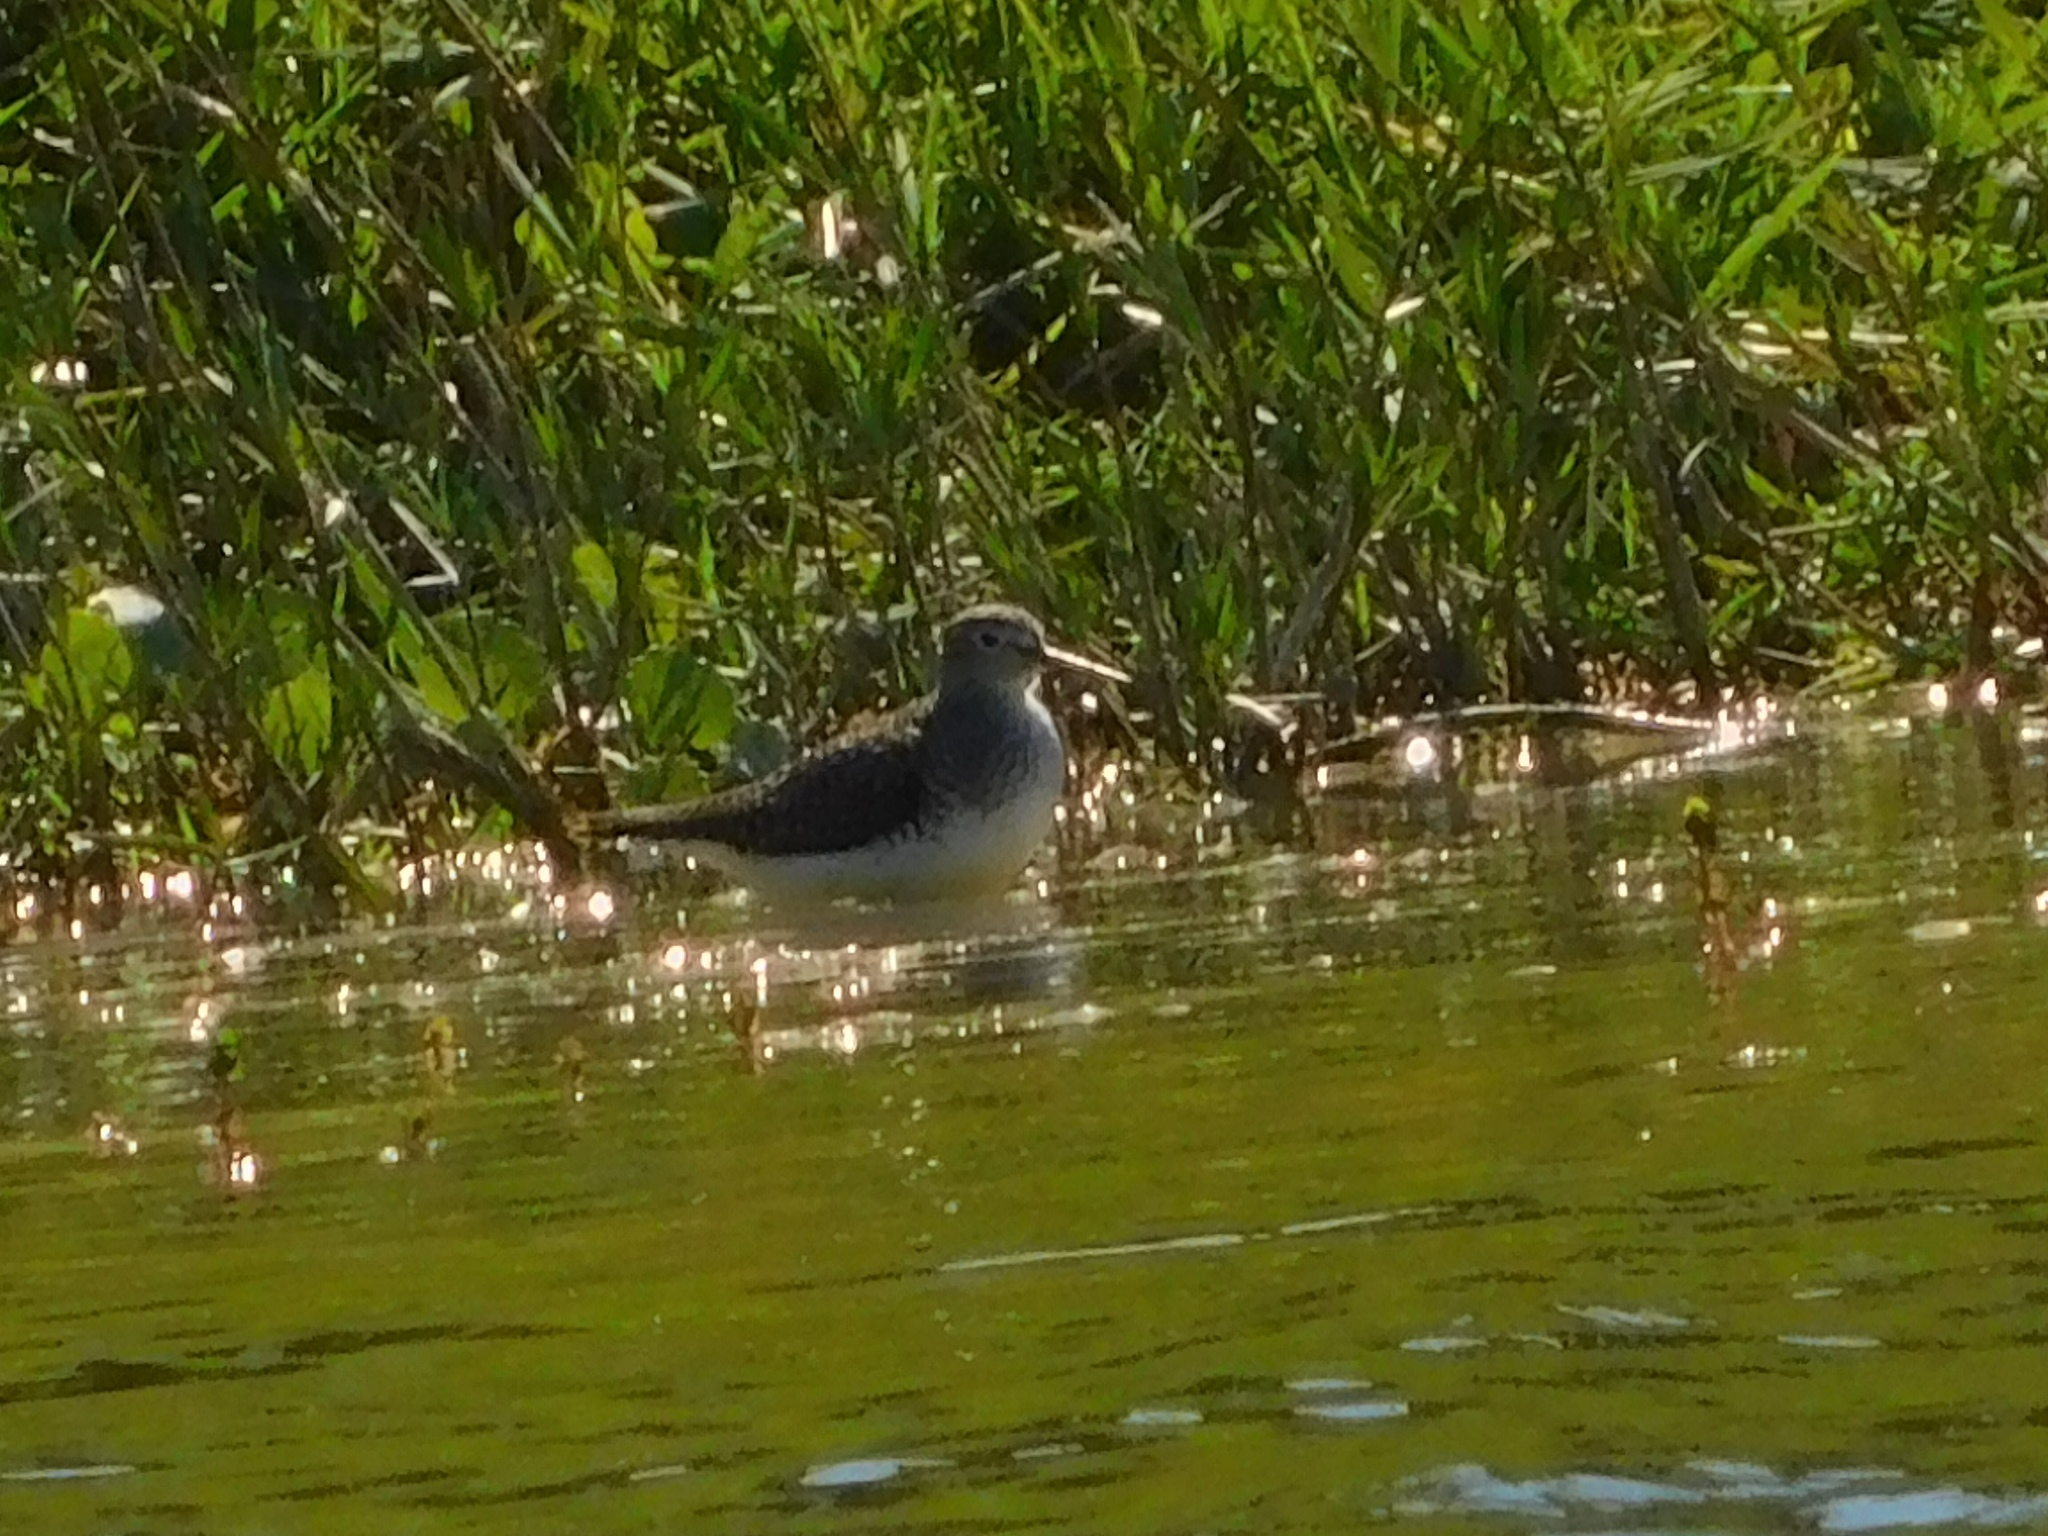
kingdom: Animalia
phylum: Chordata
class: Aves
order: Charadriiformes
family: Scolopacidae
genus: Tringa
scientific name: Tringa solitaria
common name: Solitary sandpiper
